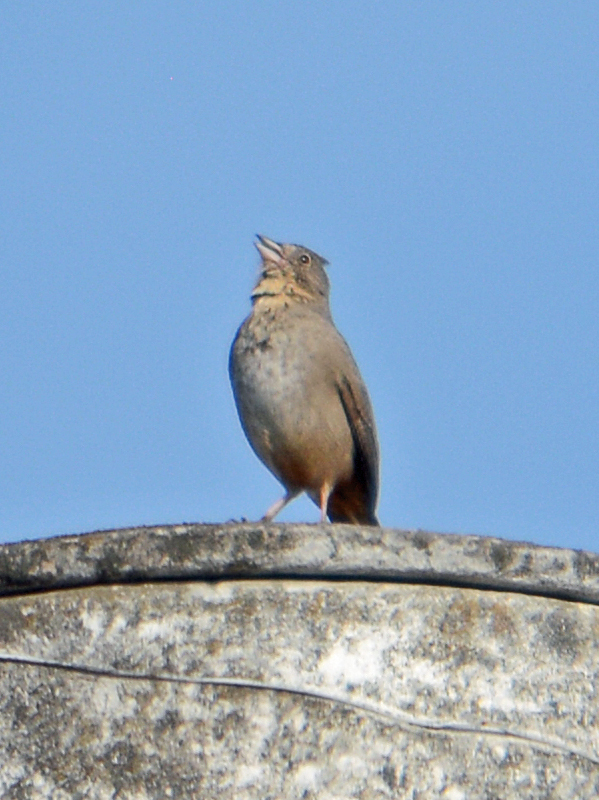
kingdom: Animalia
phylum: Chordata
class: Aves
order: Passeriformes
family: Passerellidae
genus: Melozone
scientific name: Melozone fusca
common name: Canyon towhee
